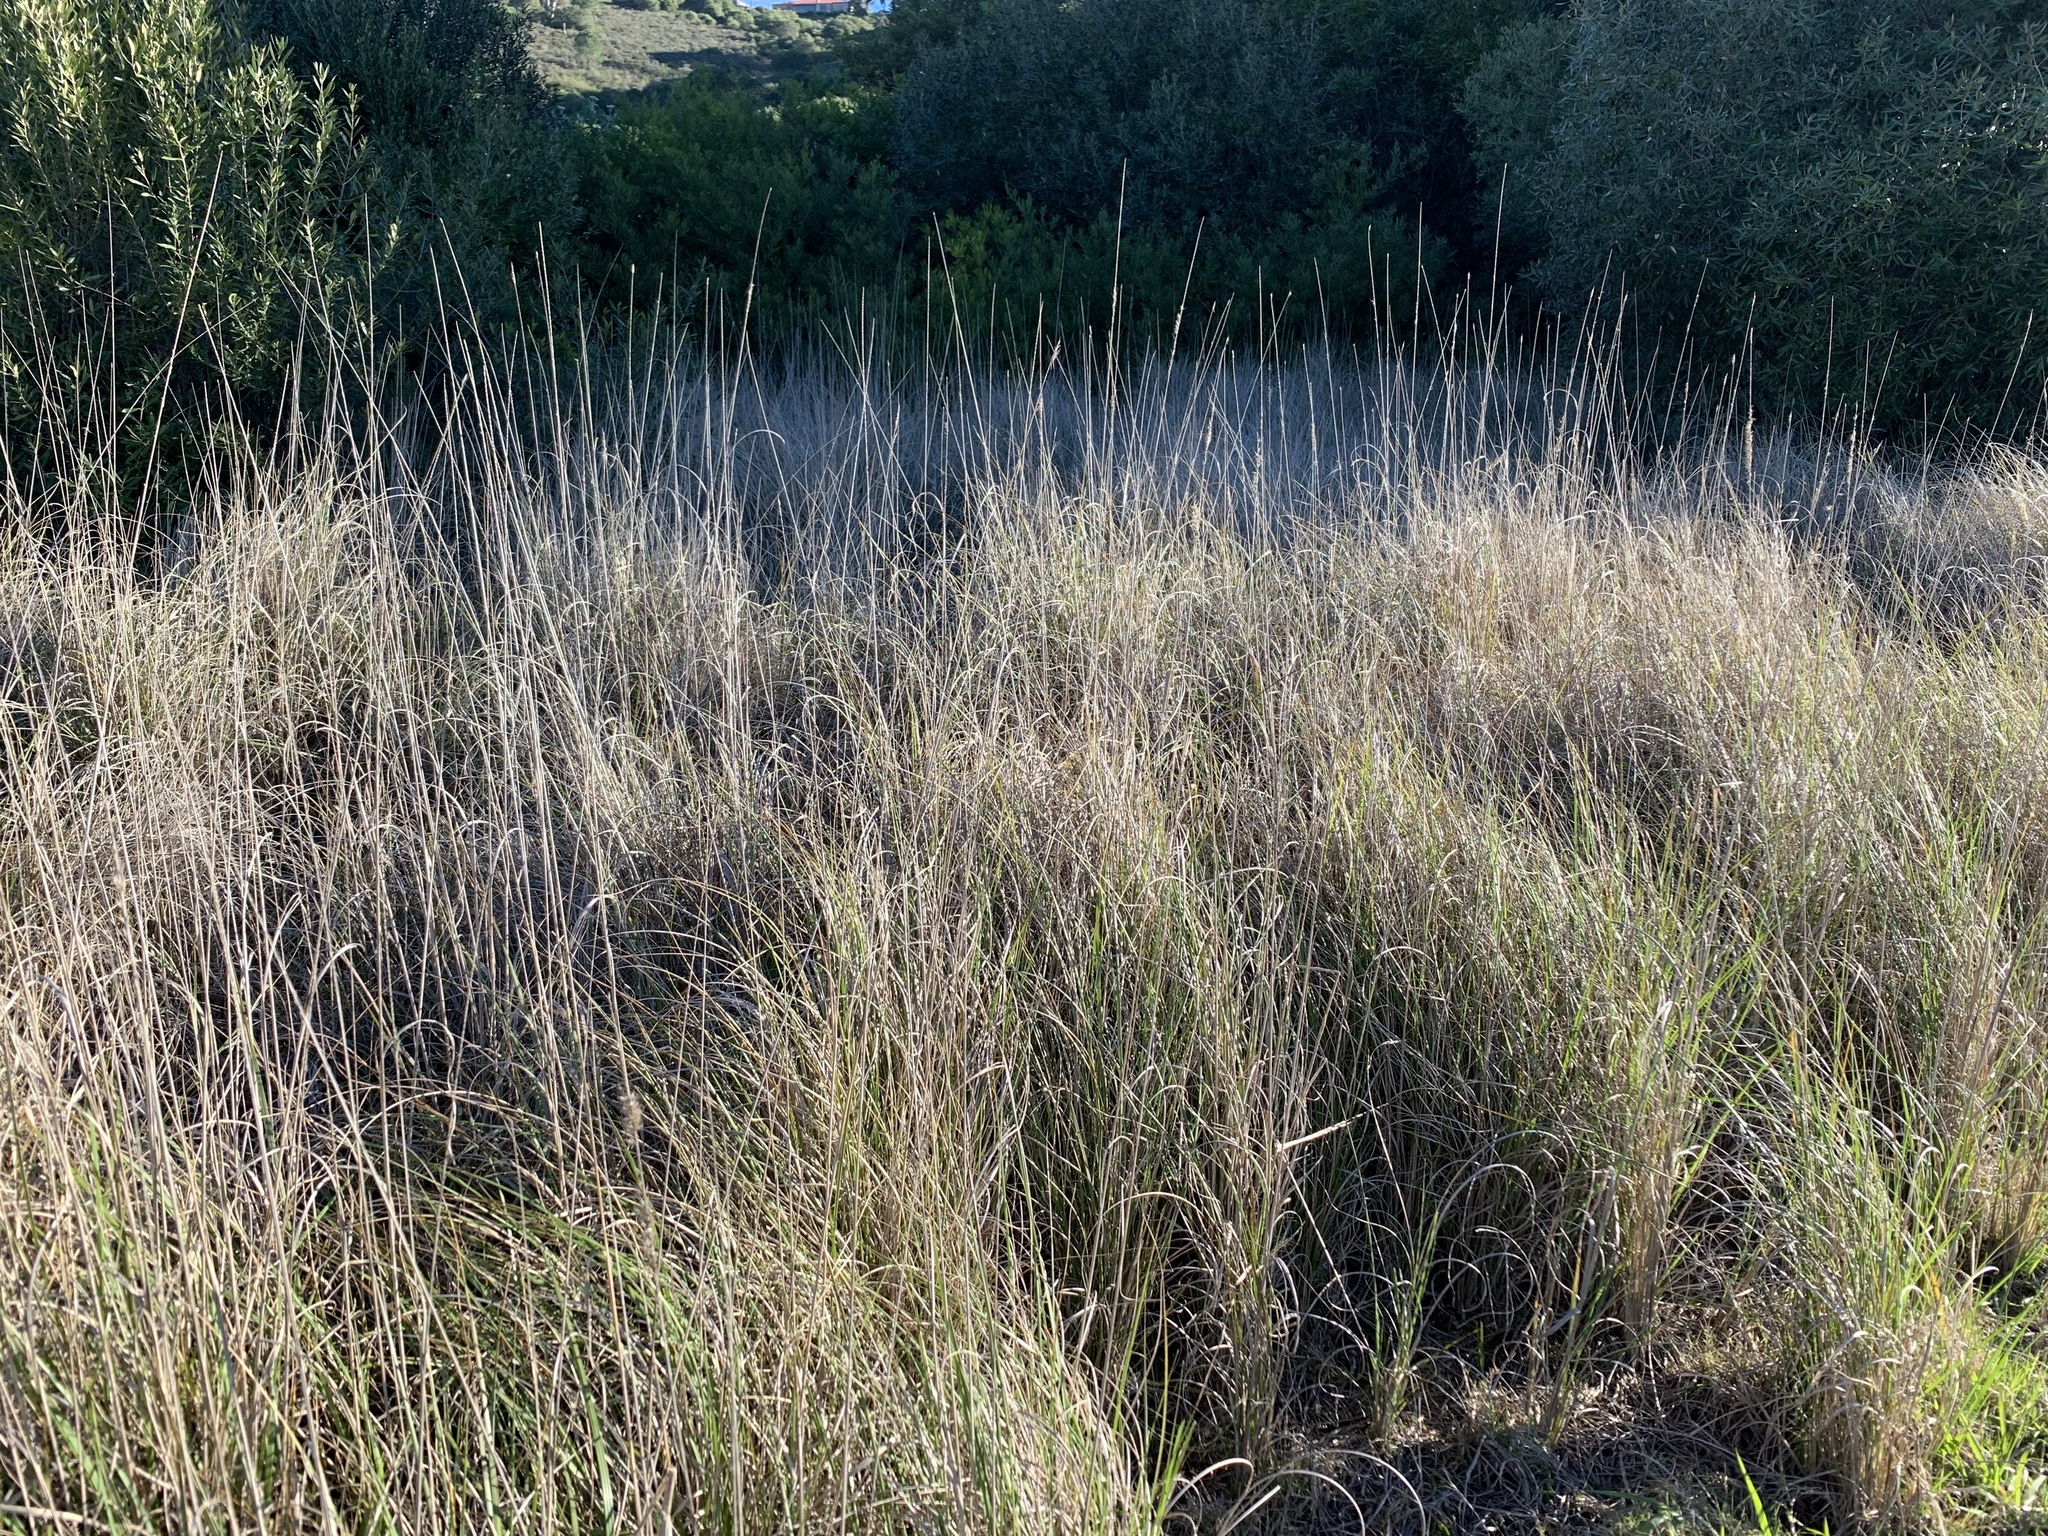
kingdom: Plantae
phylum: Tracheophyta
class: Liliopsida
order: Poales
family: Poaceae
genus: Cenchrus
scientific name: Cenchrus caudatus
